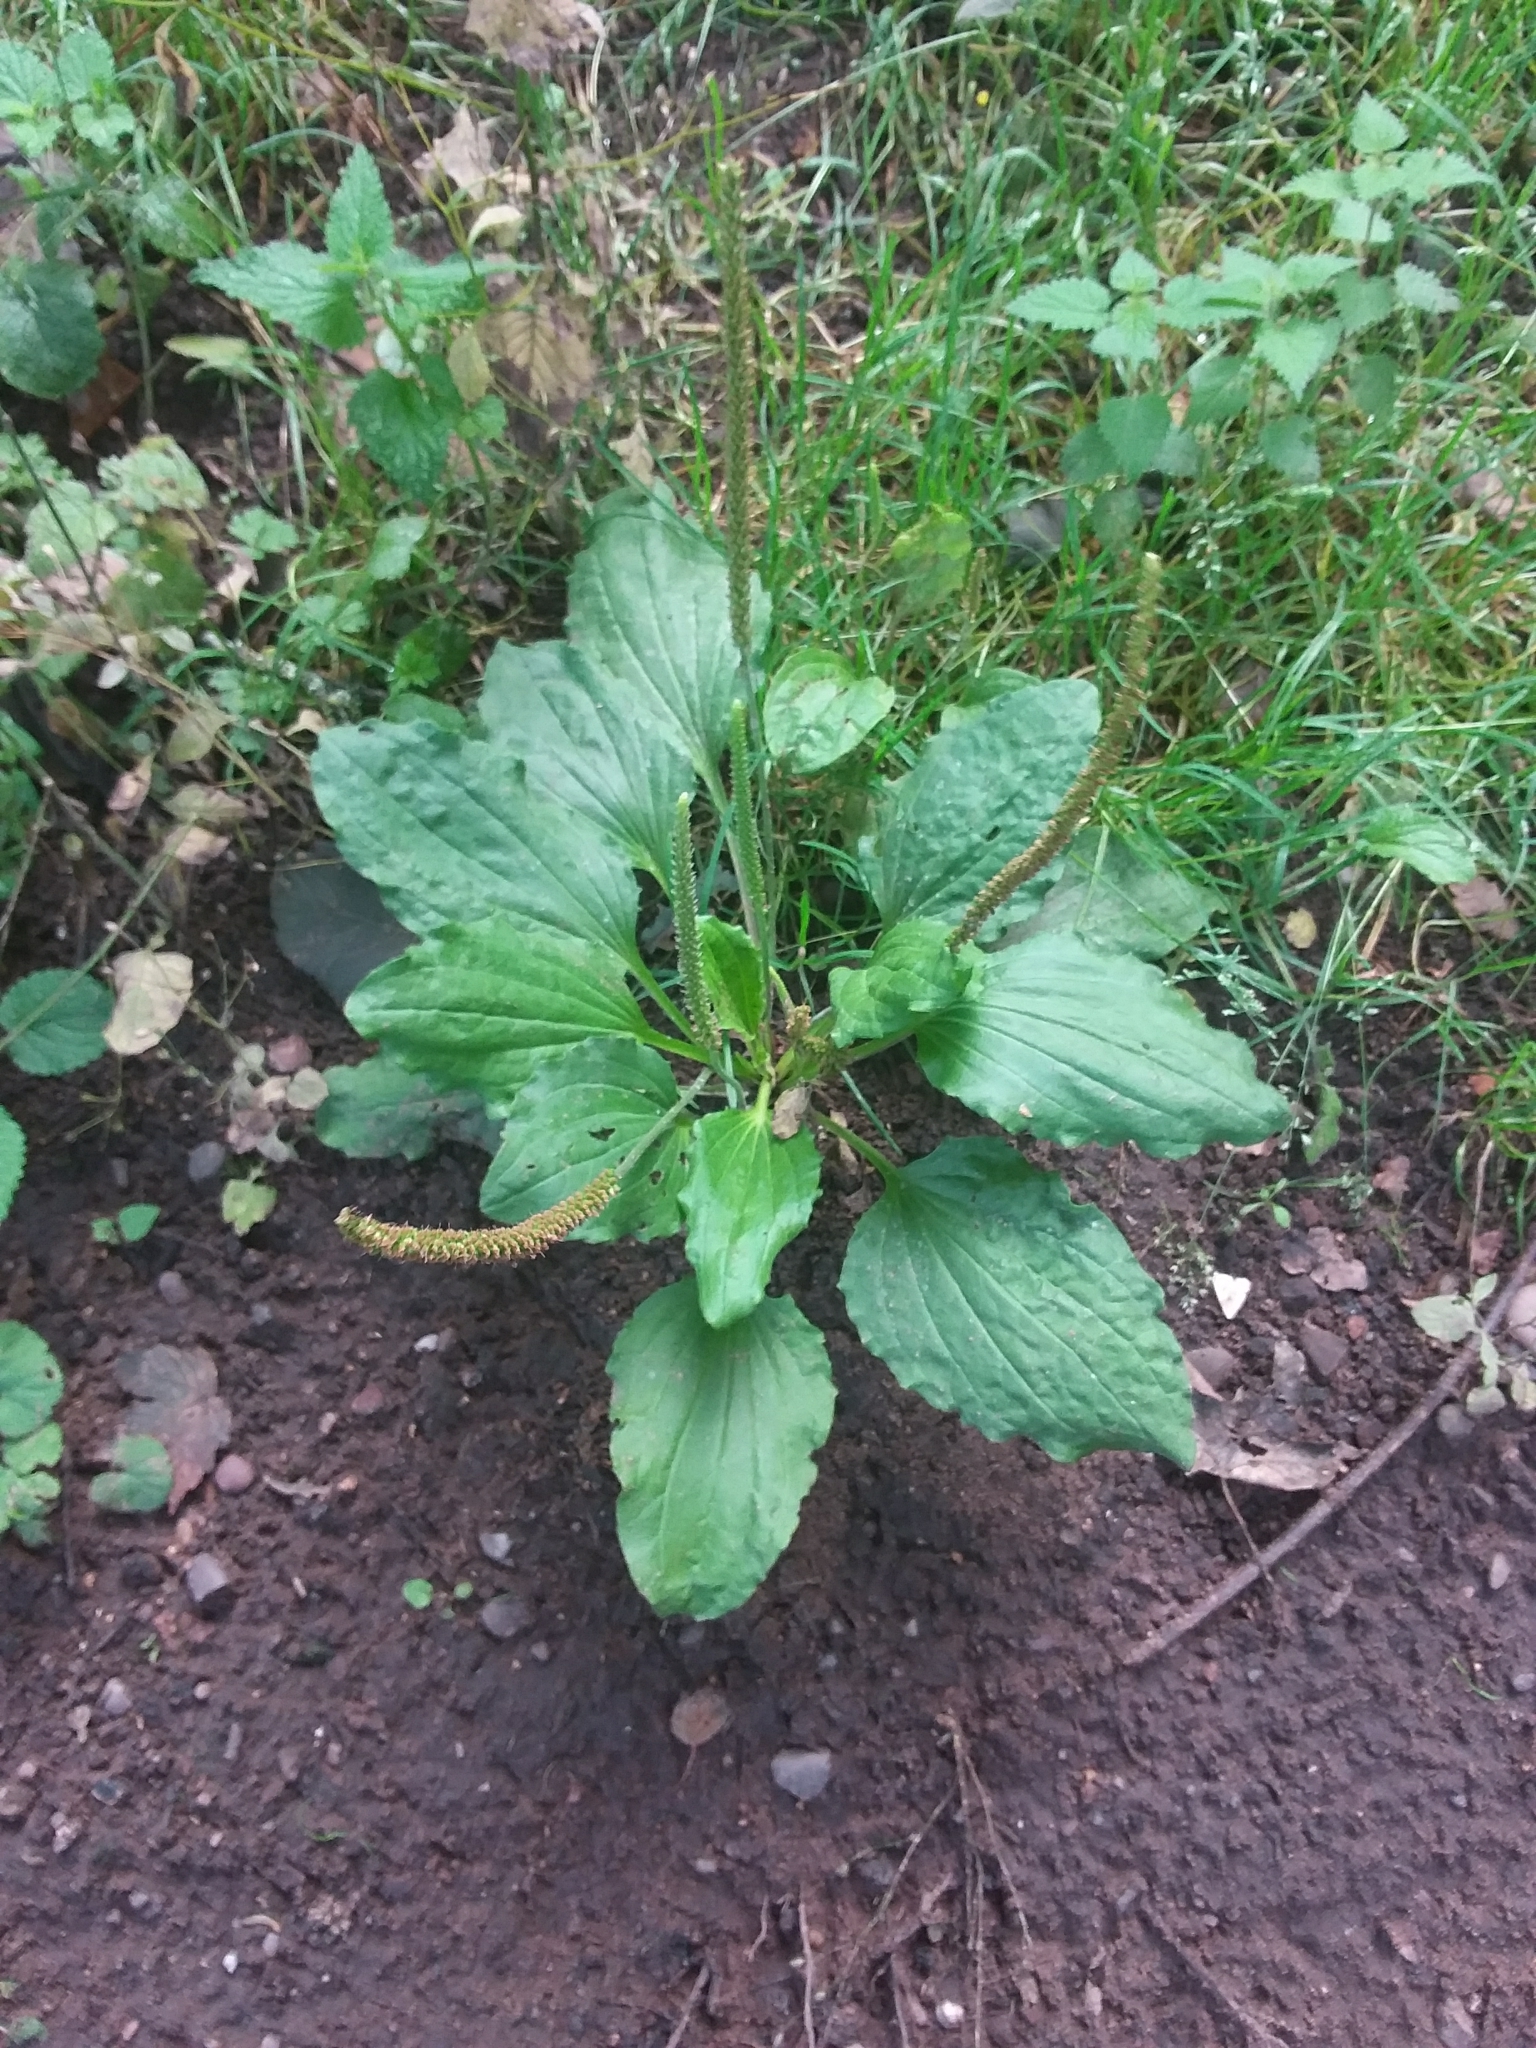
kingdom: Plantae
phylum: Tracheophyta
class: Magnoliopsida
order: Lamiales
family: Plantaginaceae
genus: Plantago
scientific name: Plantago major
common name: Common plantain
